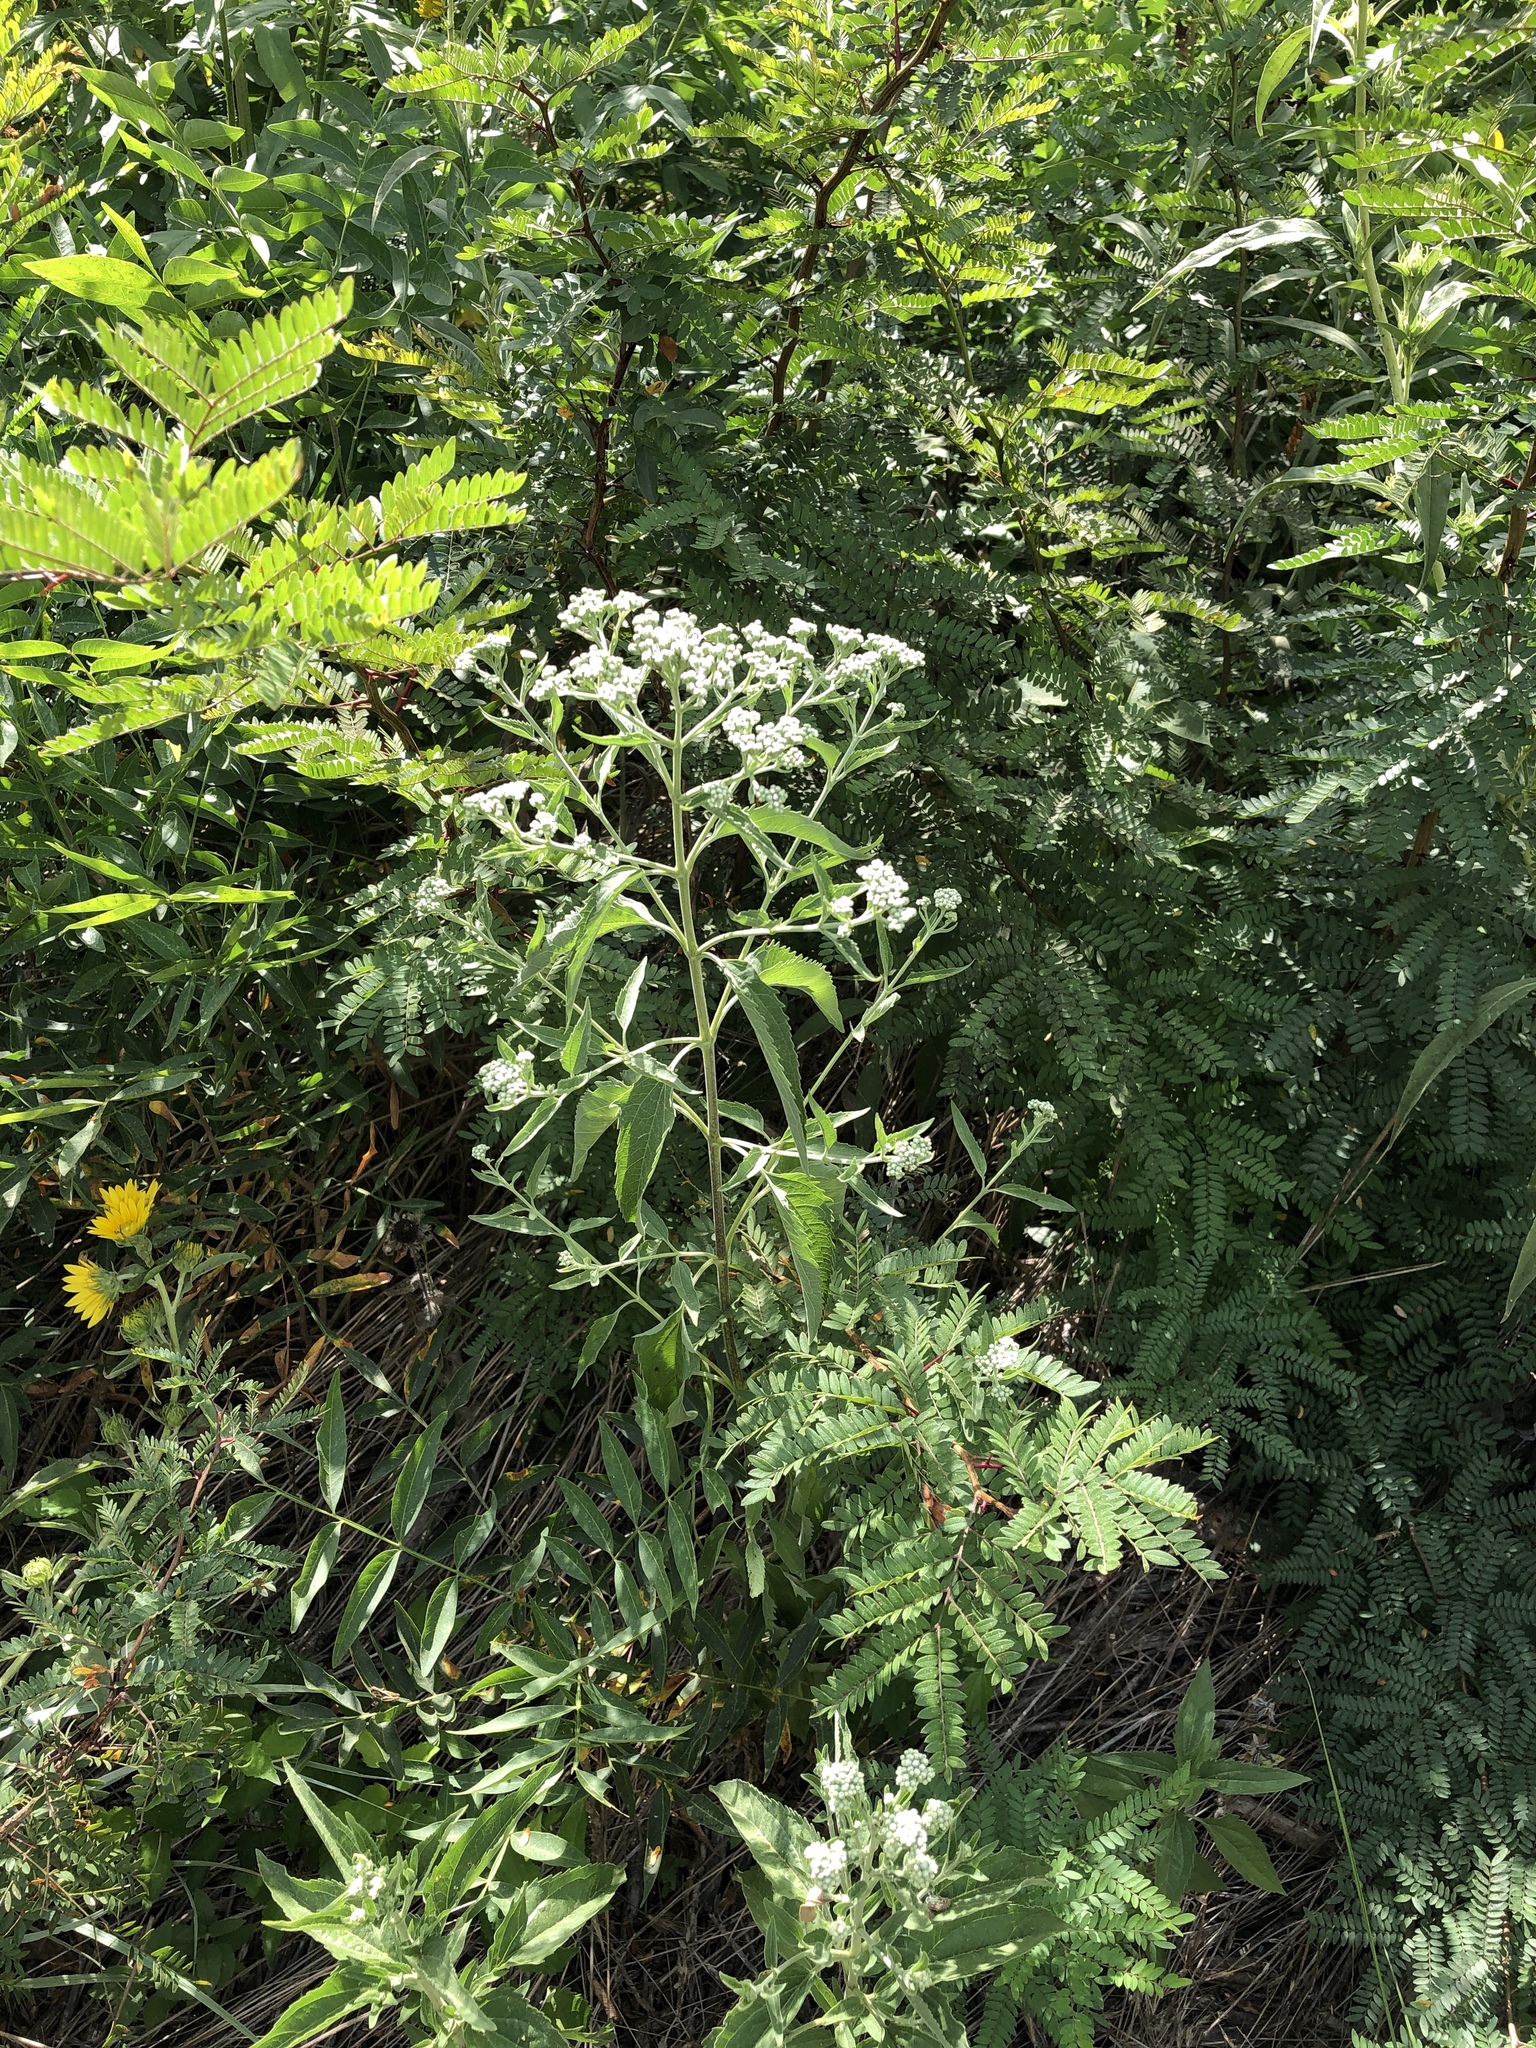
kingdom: Plantae
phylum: Tracheophyta
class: Magnoliopsida
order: Asterales
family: Asteraceae
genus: Eupatorium
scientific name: Eupatorium serotinum
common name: Late boneset
